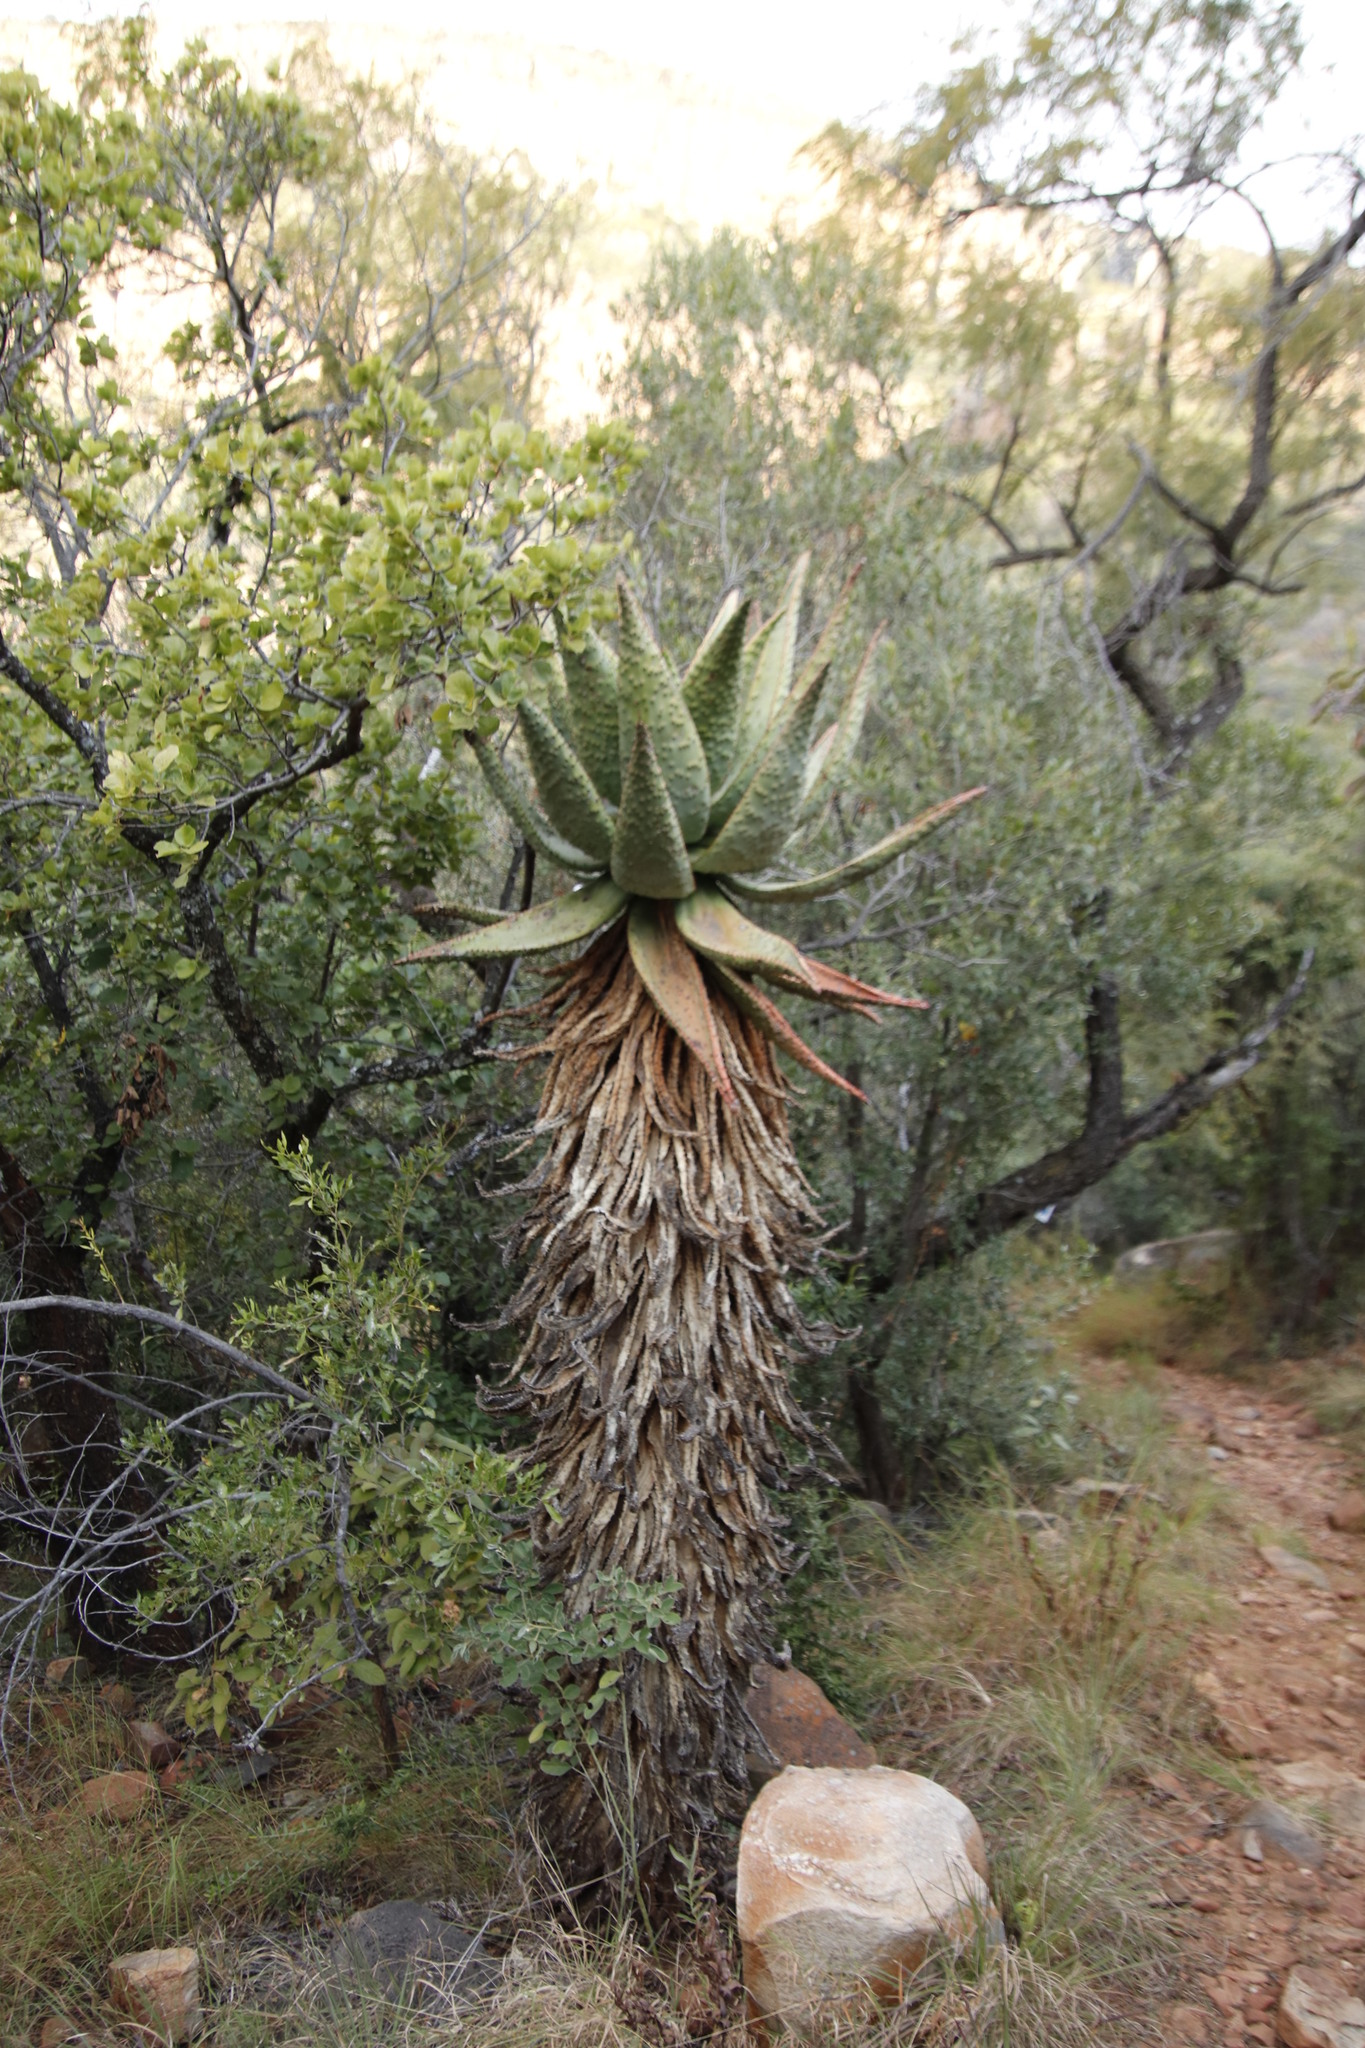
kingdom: Plantae
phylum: Tracheophyta
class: Liliopsida
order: Asparagales
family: Asphodelaceae
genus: Aloe
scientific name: Aloe marlothii
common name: Flat-flowered aloe
